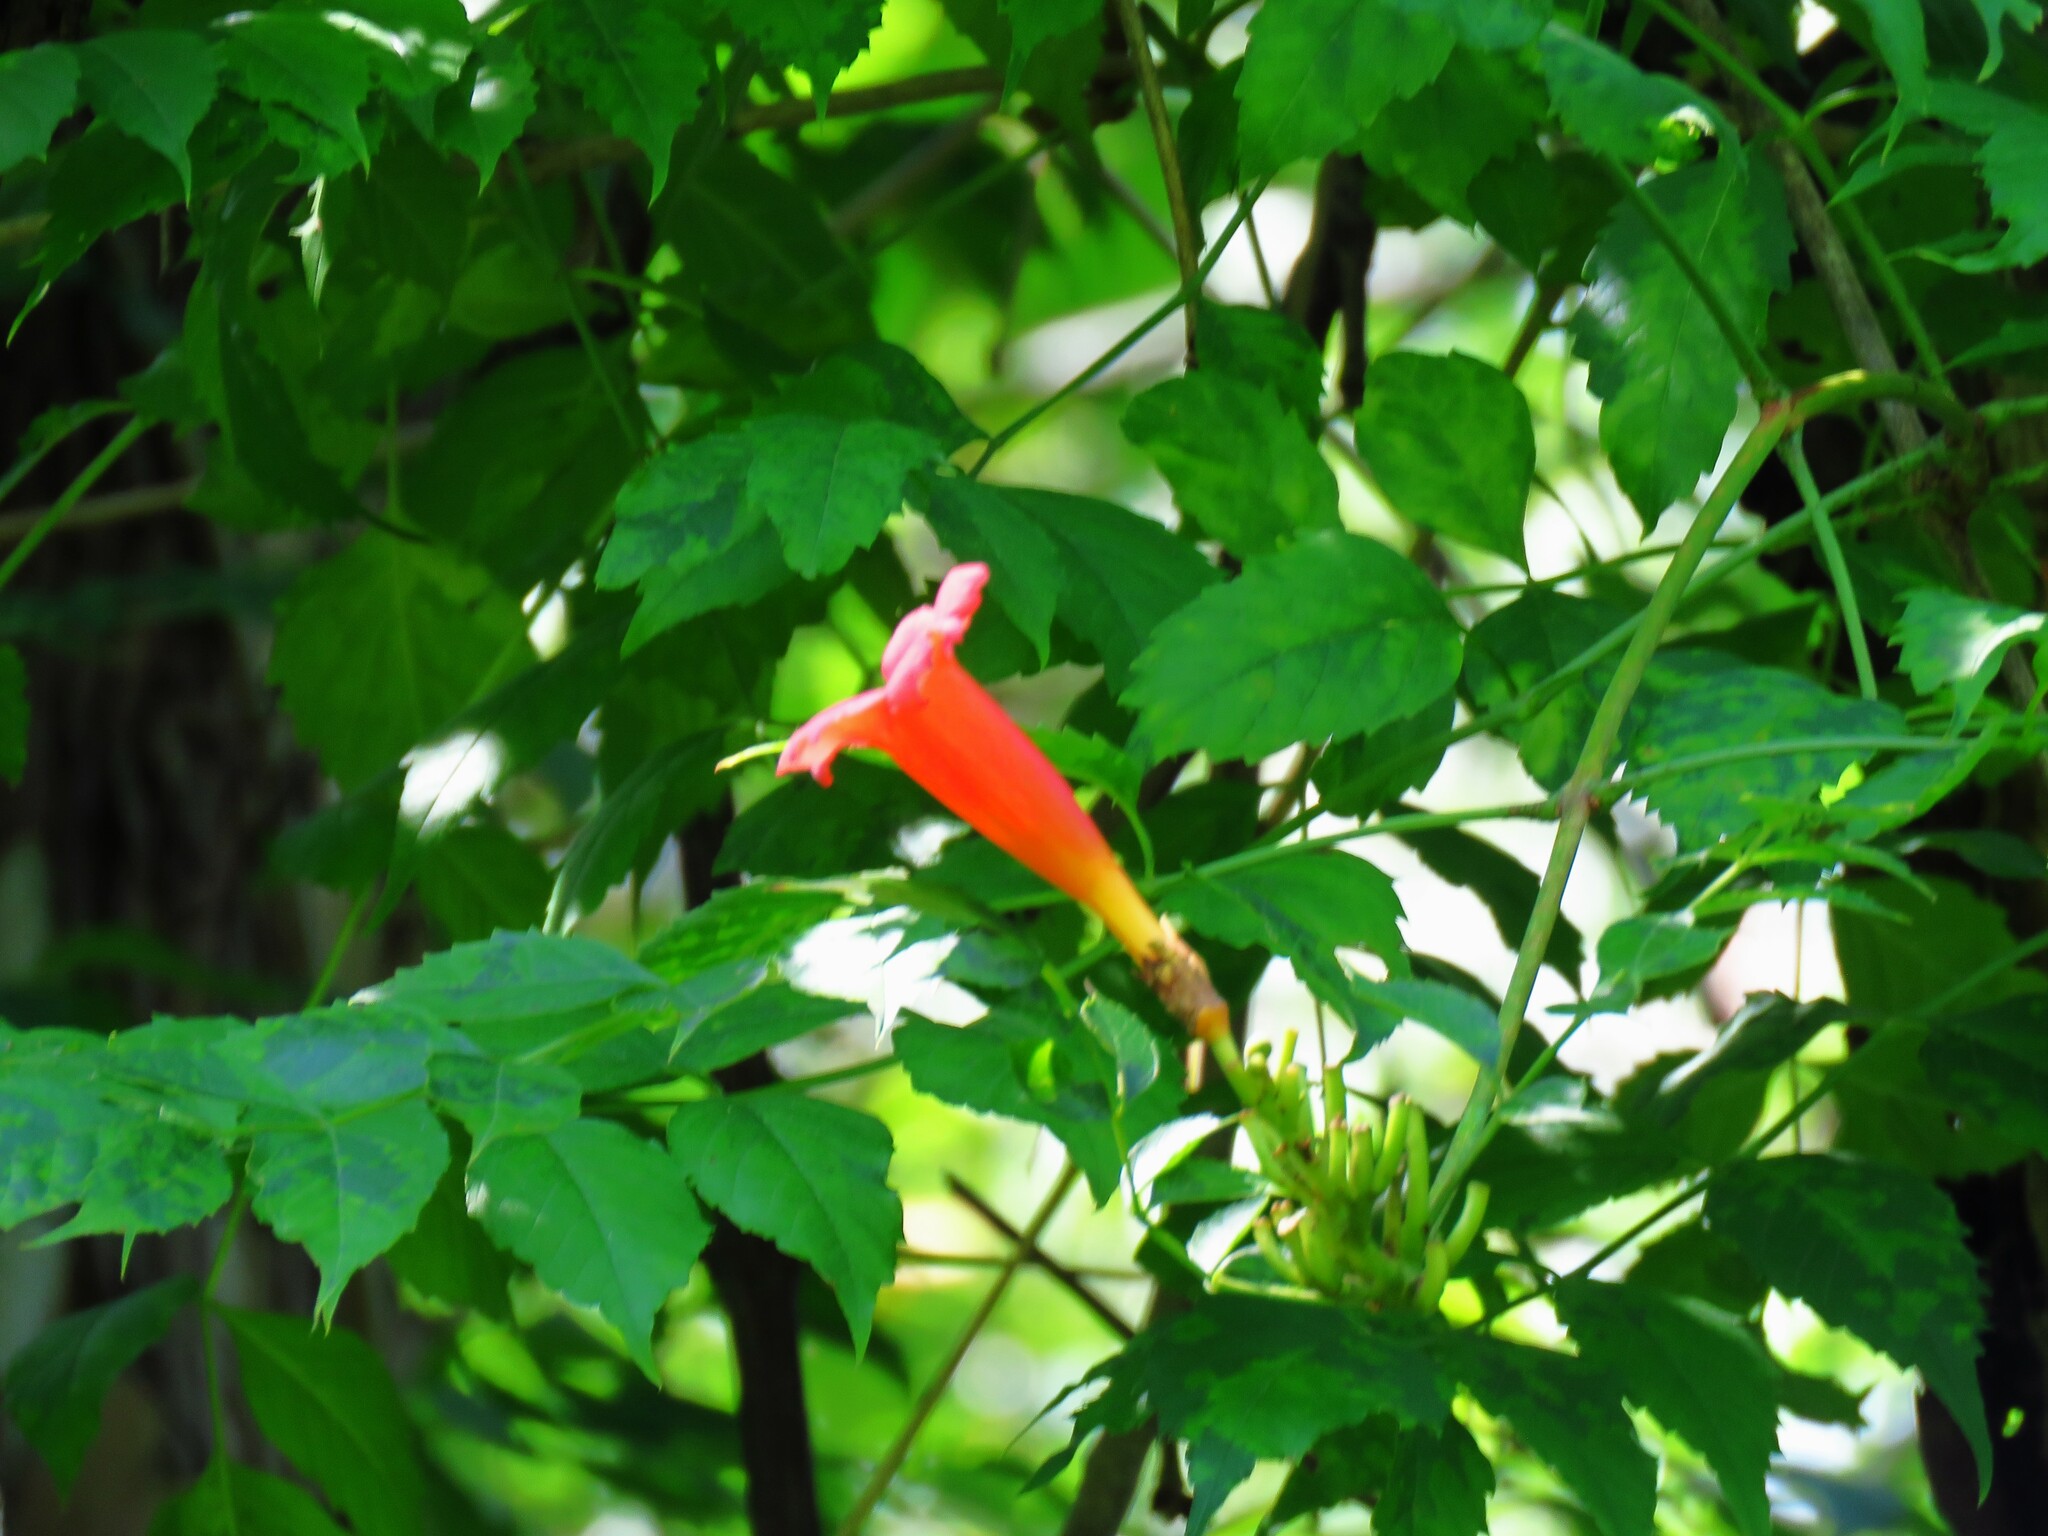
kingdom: Plantae
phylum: Tracheophyta
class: Magnoliopsida
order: Lamiales
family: Bignoniaceae
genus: Campsis
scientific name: Campsis radicans
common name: Trumpet-creeper
